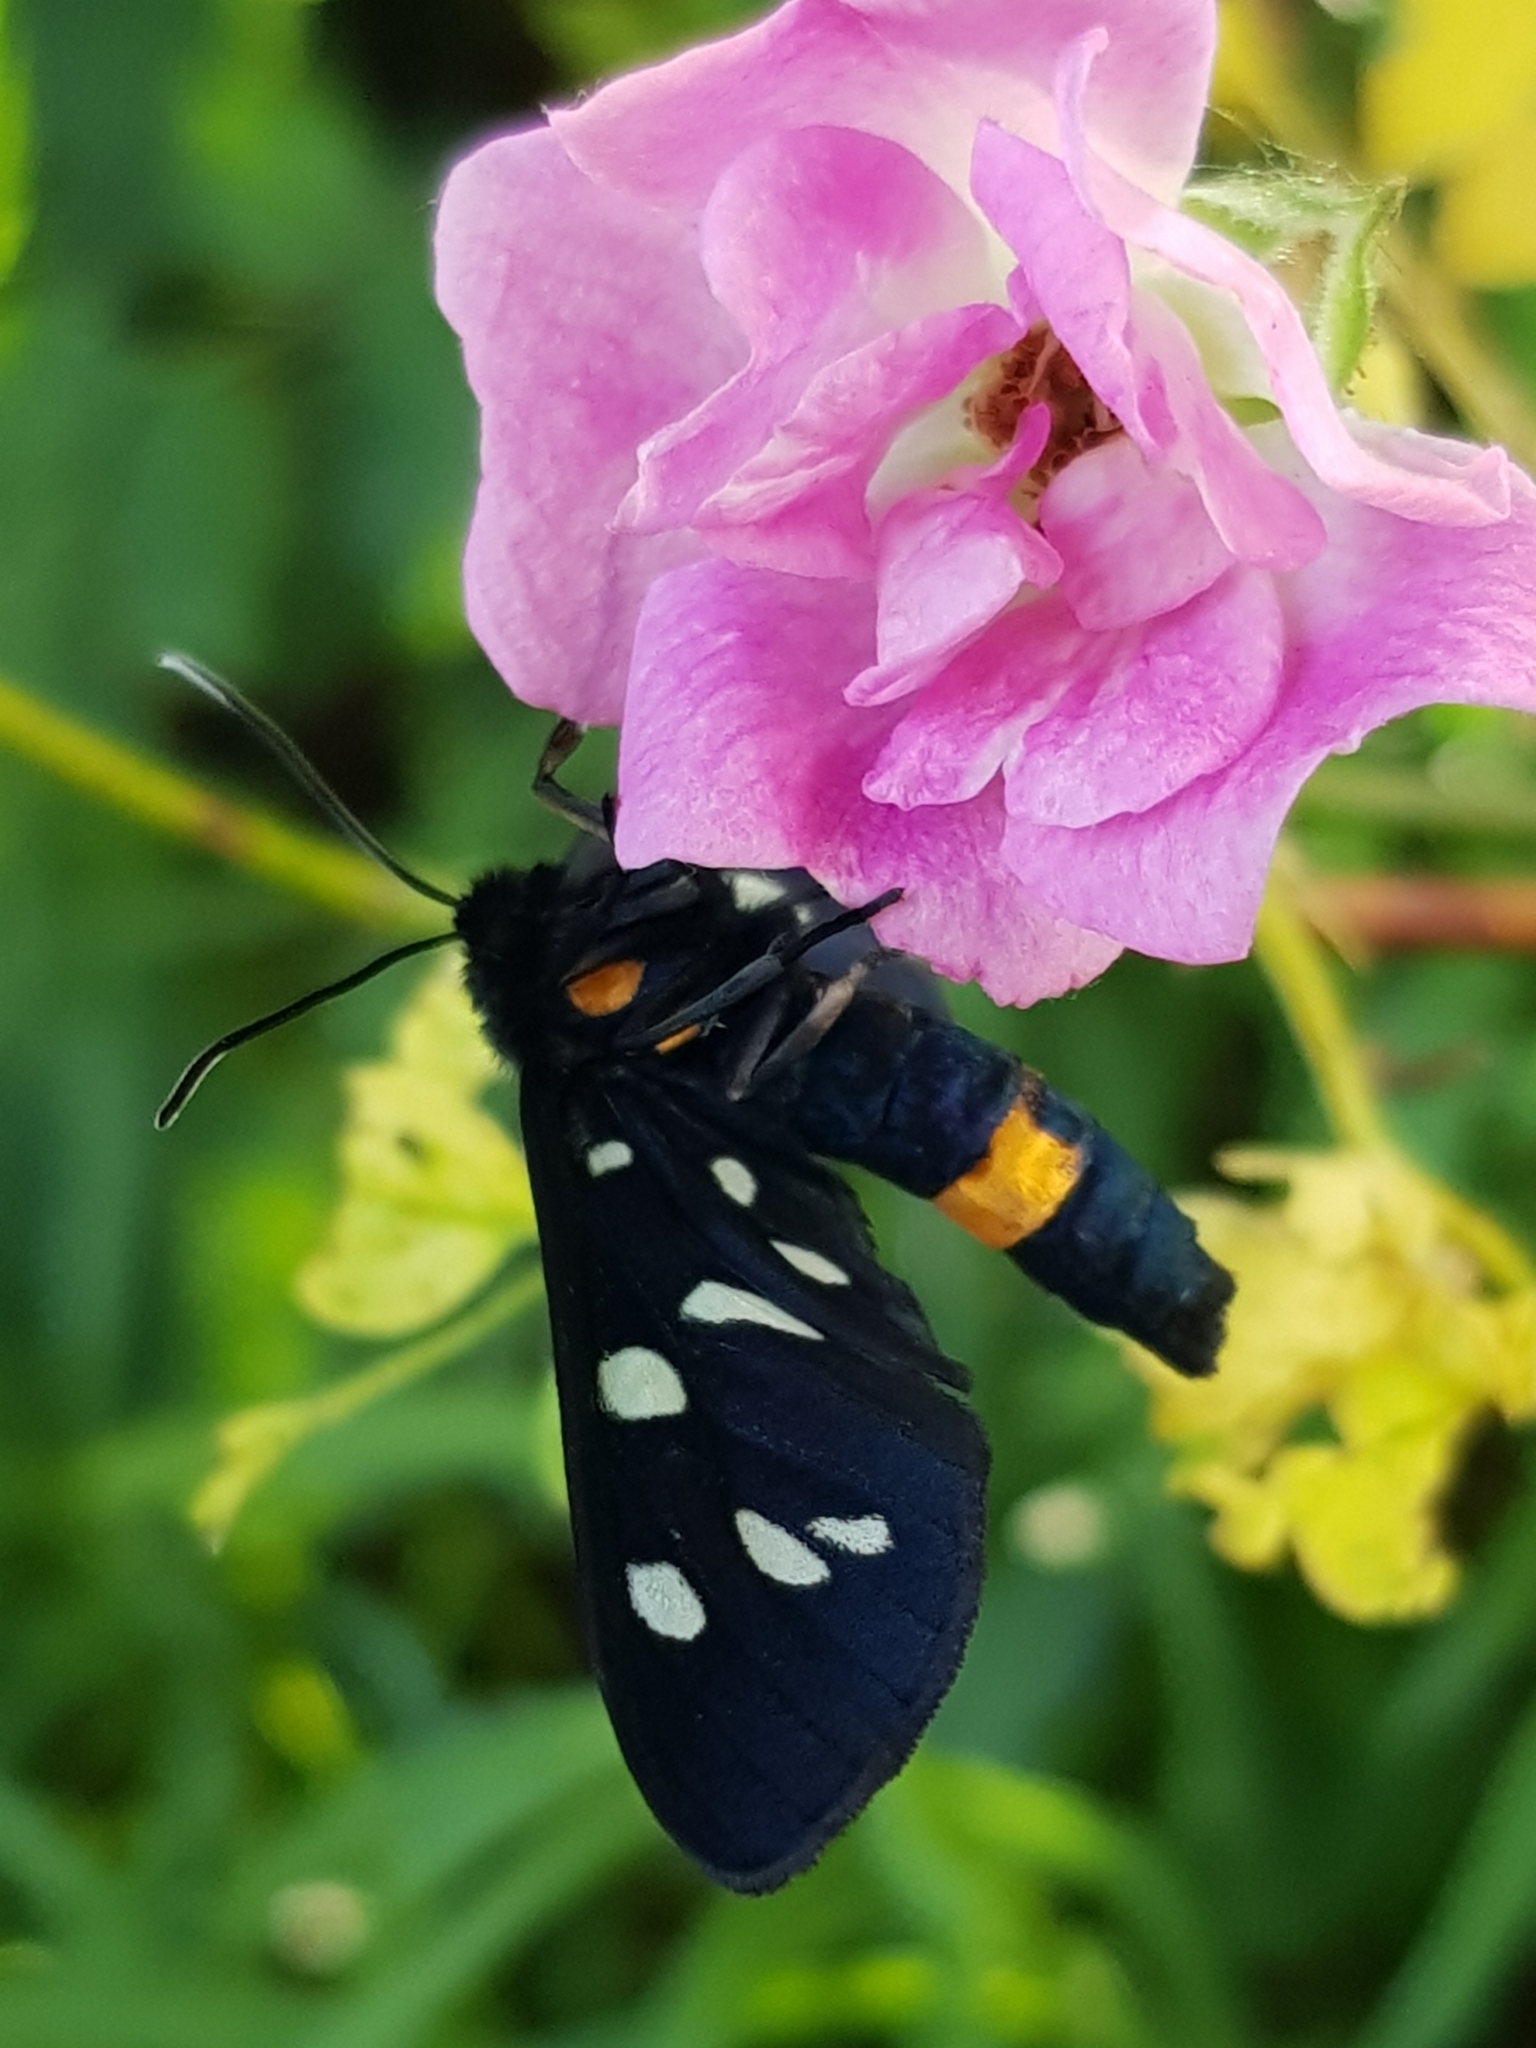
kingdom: Animalia
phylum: Arthropoda
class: Insecta
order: Lepidoptera
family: Erebidae
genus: Amata
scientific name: Amata phegea
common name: Nine-spotted
